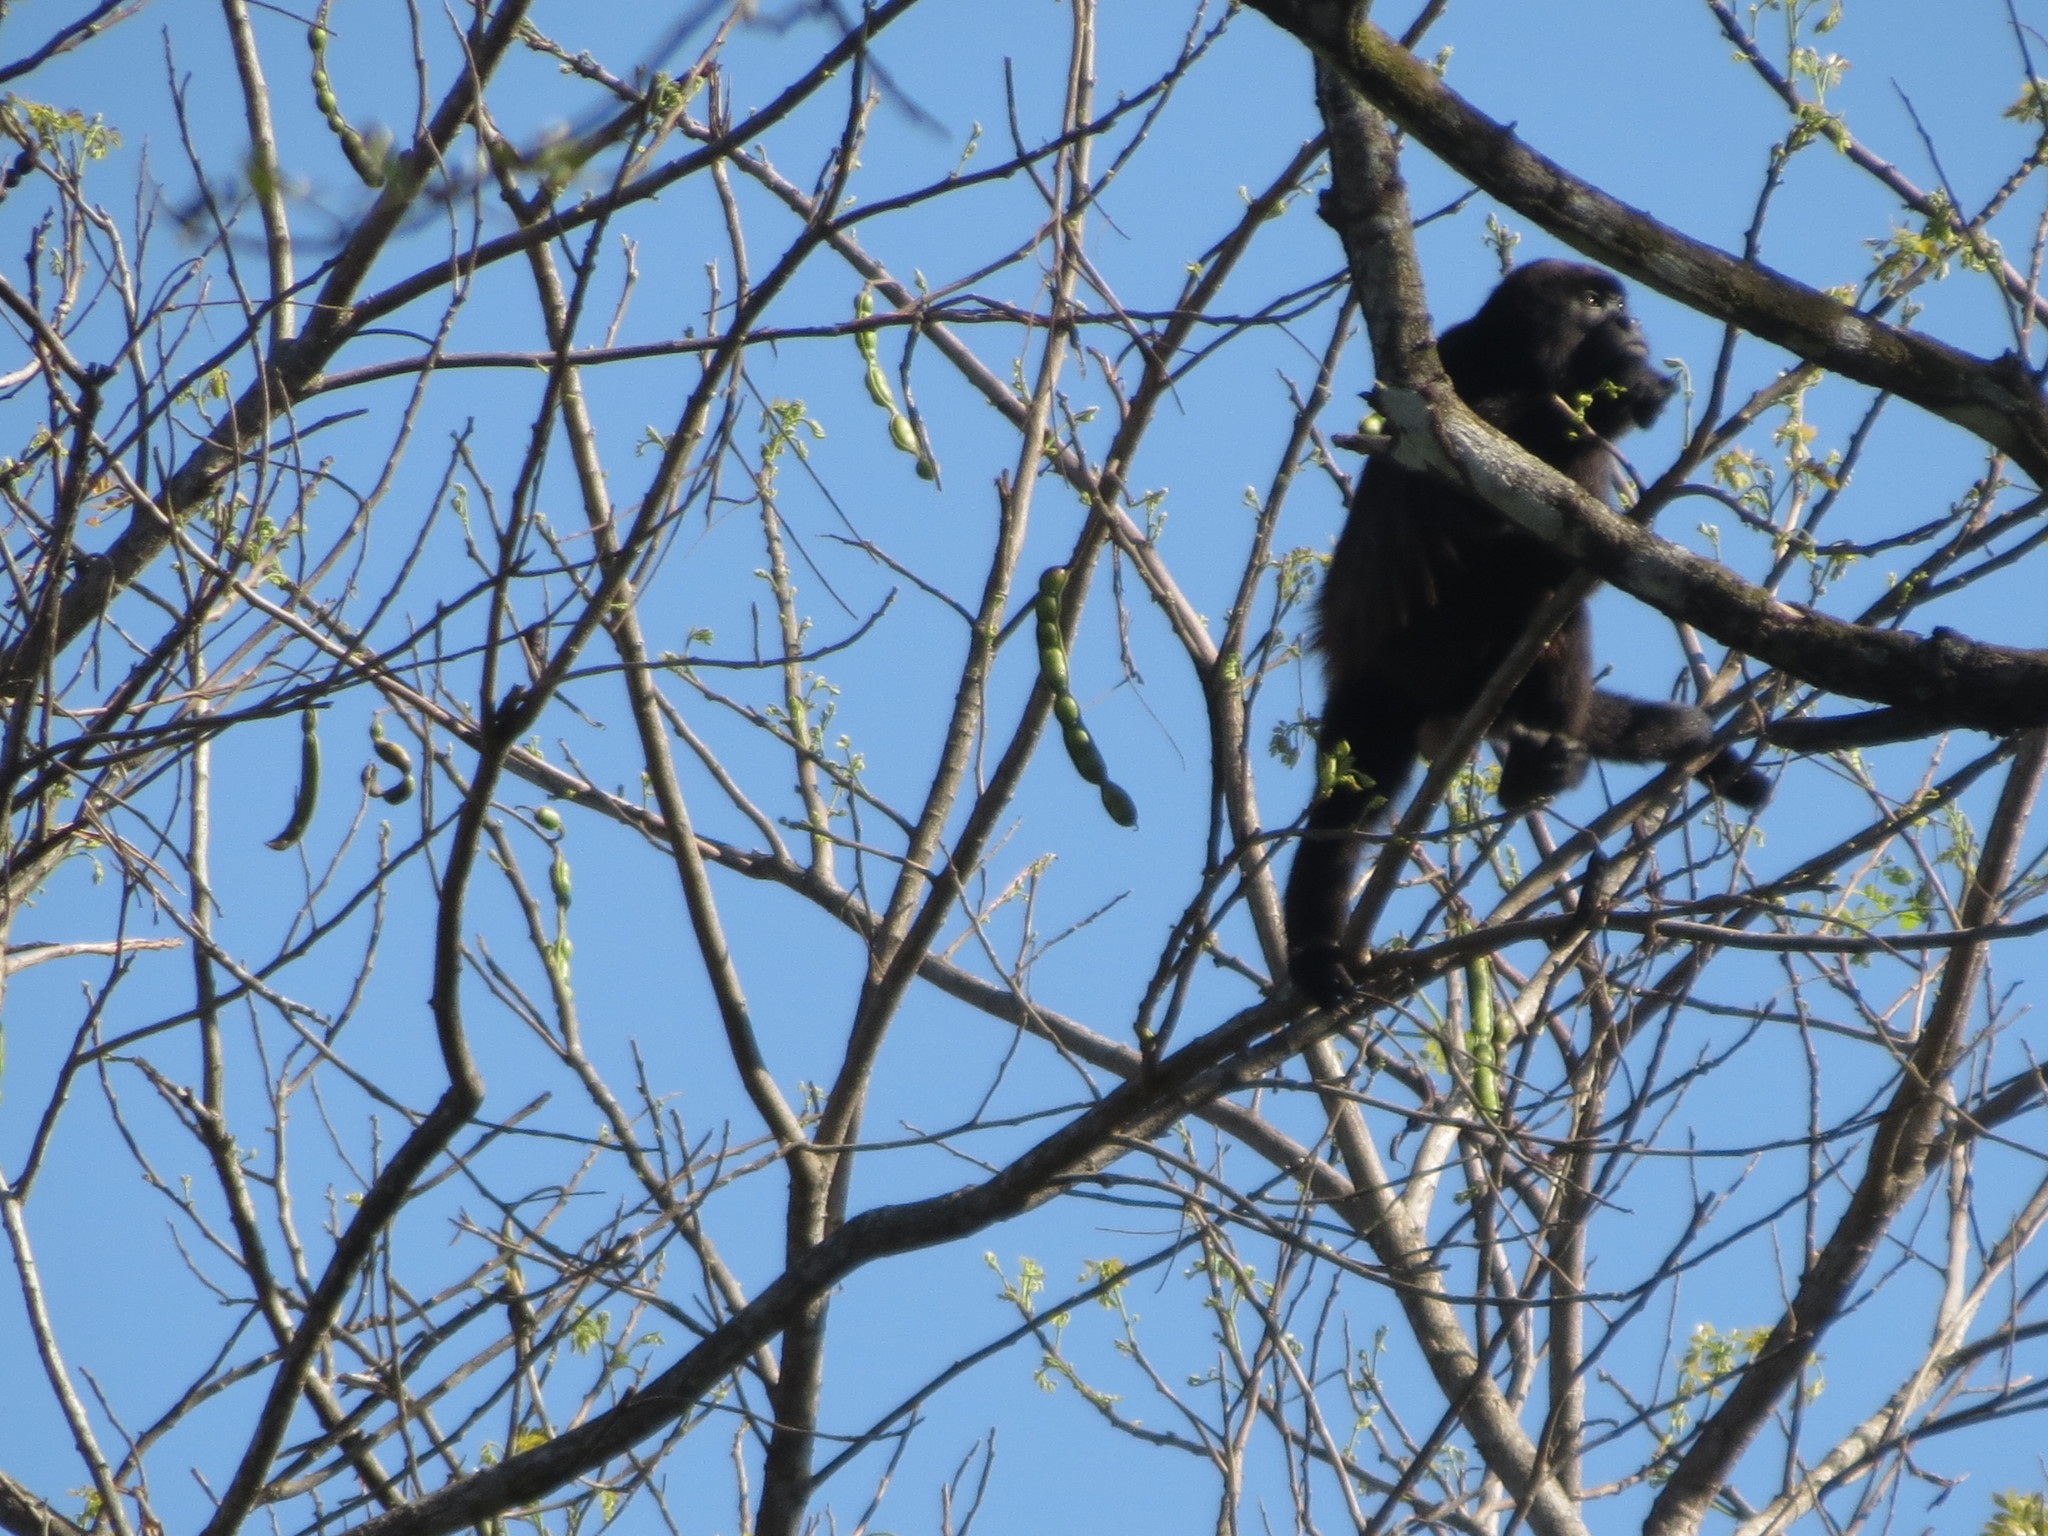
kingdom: Animalia
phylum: Chordata
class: Mammalia
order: Primates
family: Atelidae
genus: Alouatta
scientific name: Alouatta palliata
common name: Mantled howler
